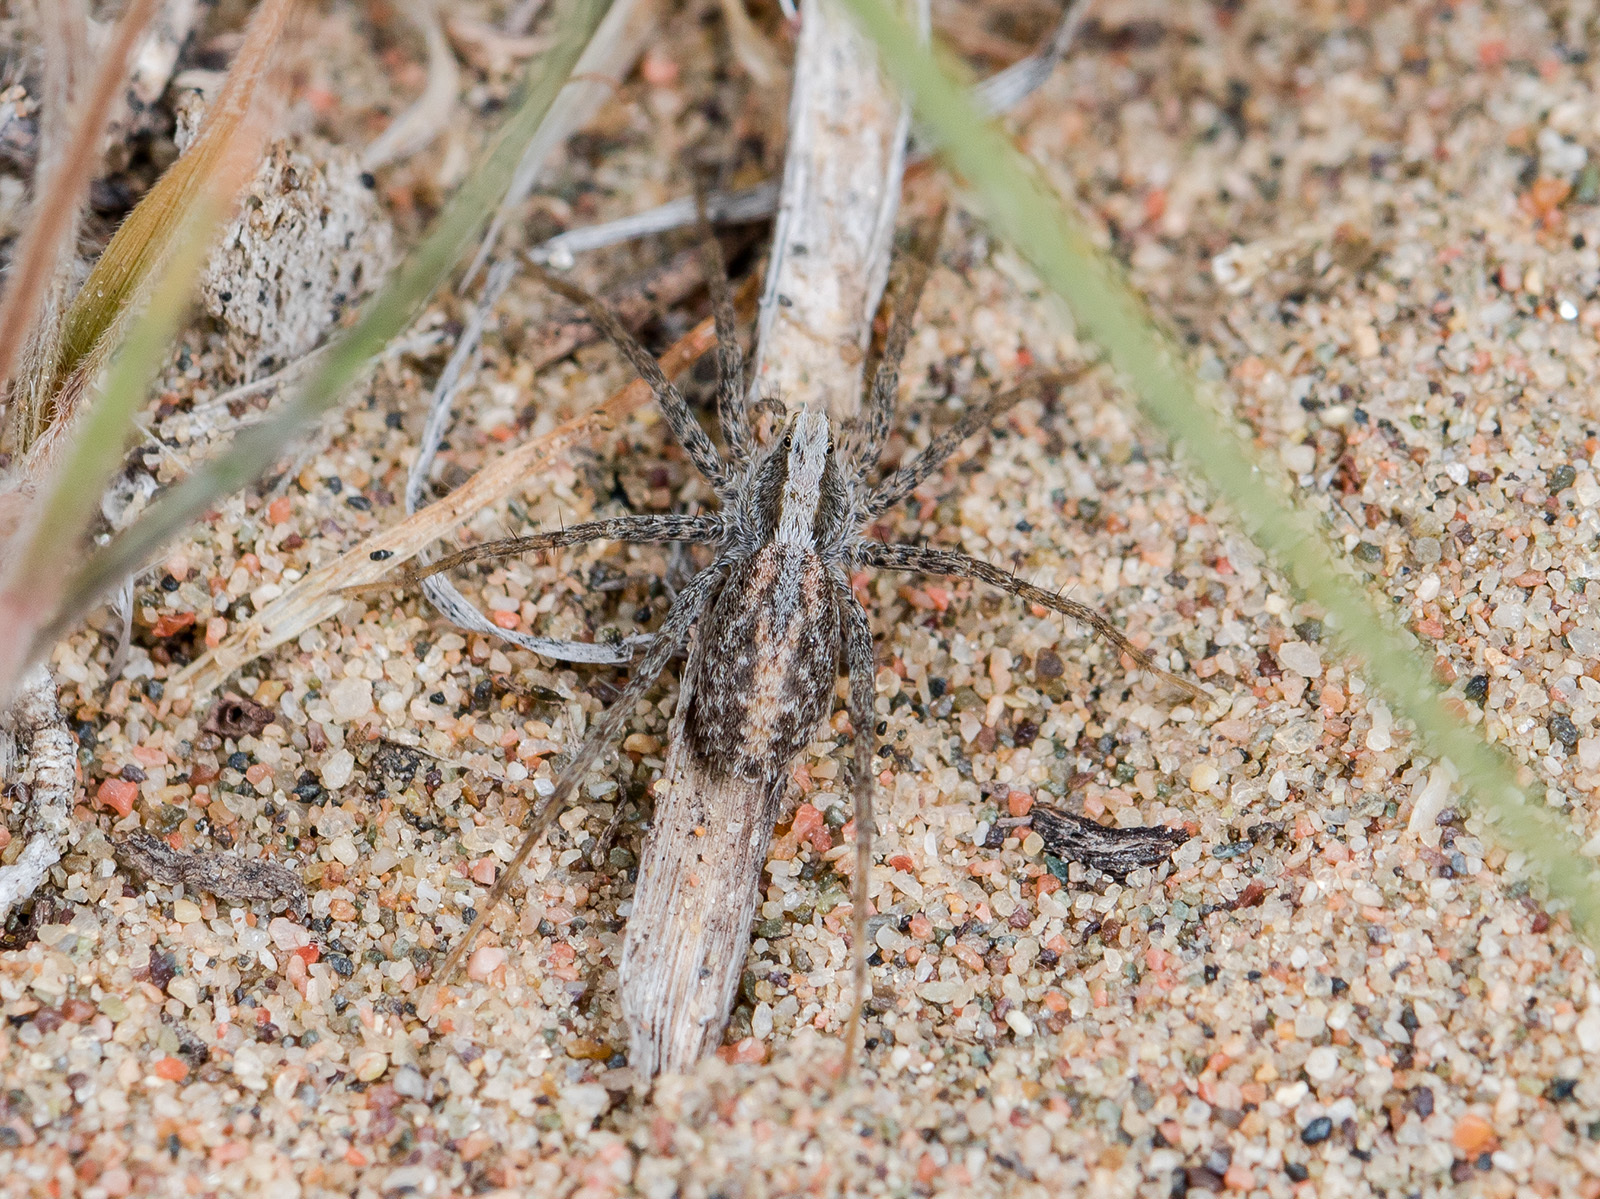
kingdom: Animalia
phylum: Arthropoda
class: Arachnida
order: Araneae
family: Lycosidae
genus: Evippa
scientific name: Evippa beschkentica
